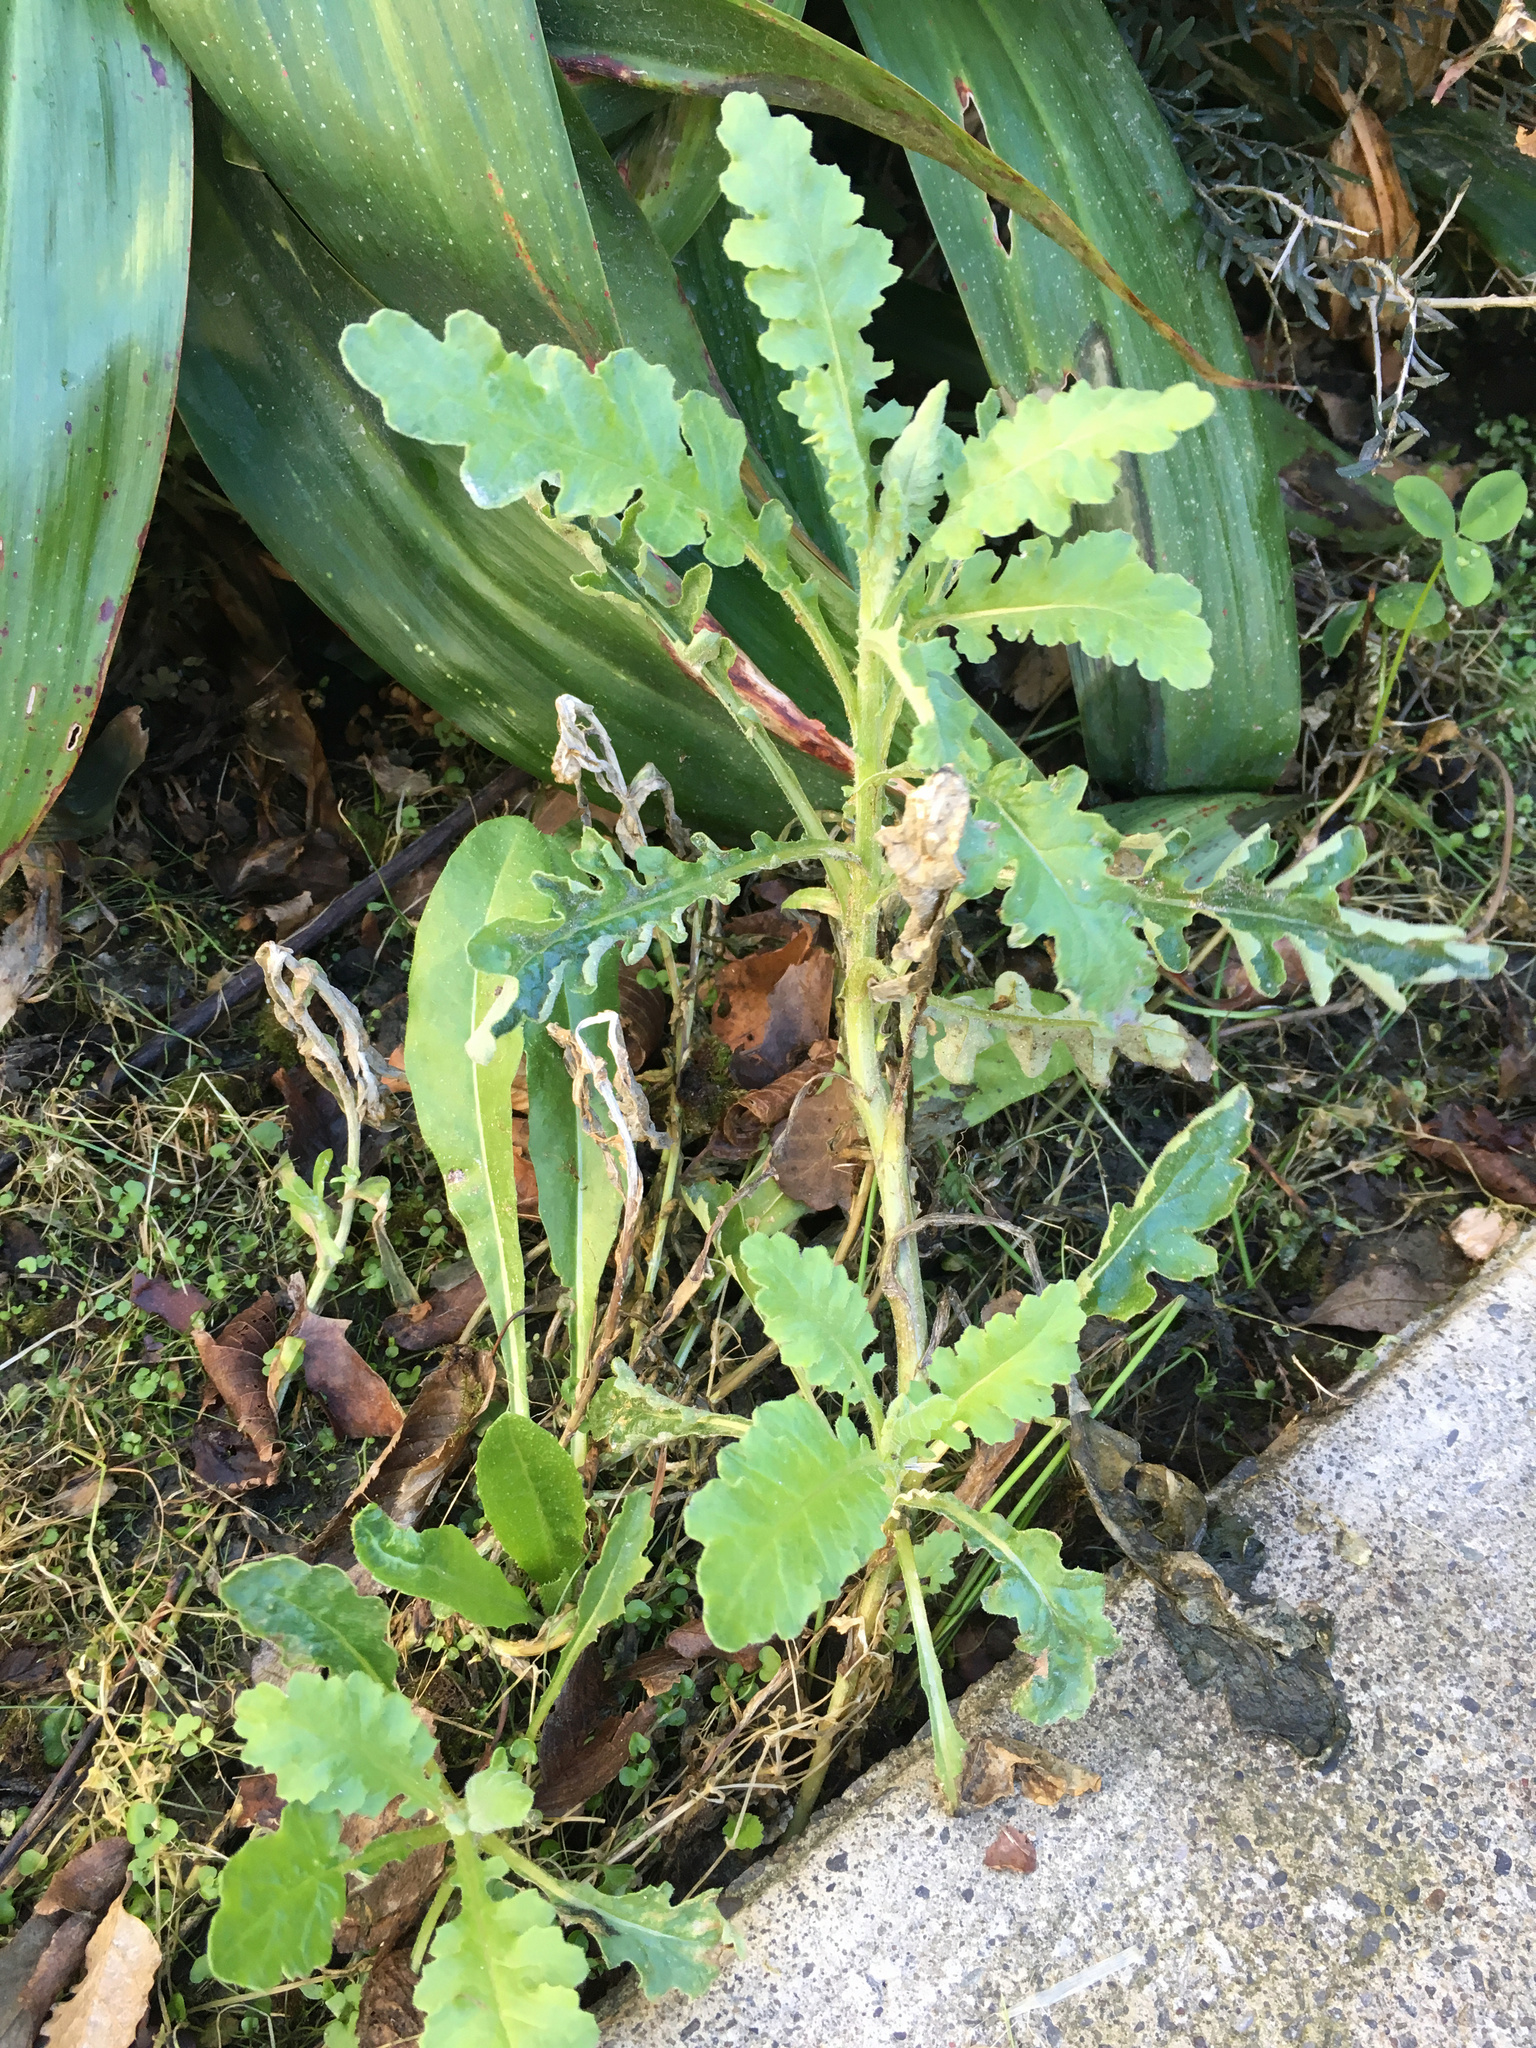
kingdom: Plantae
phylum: Tracheophyta
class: Magnoliopsida
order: Asterales
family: Asteraceae
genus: Senecio
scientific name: Senecio glomeratus
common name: Cutleaf burnweed
